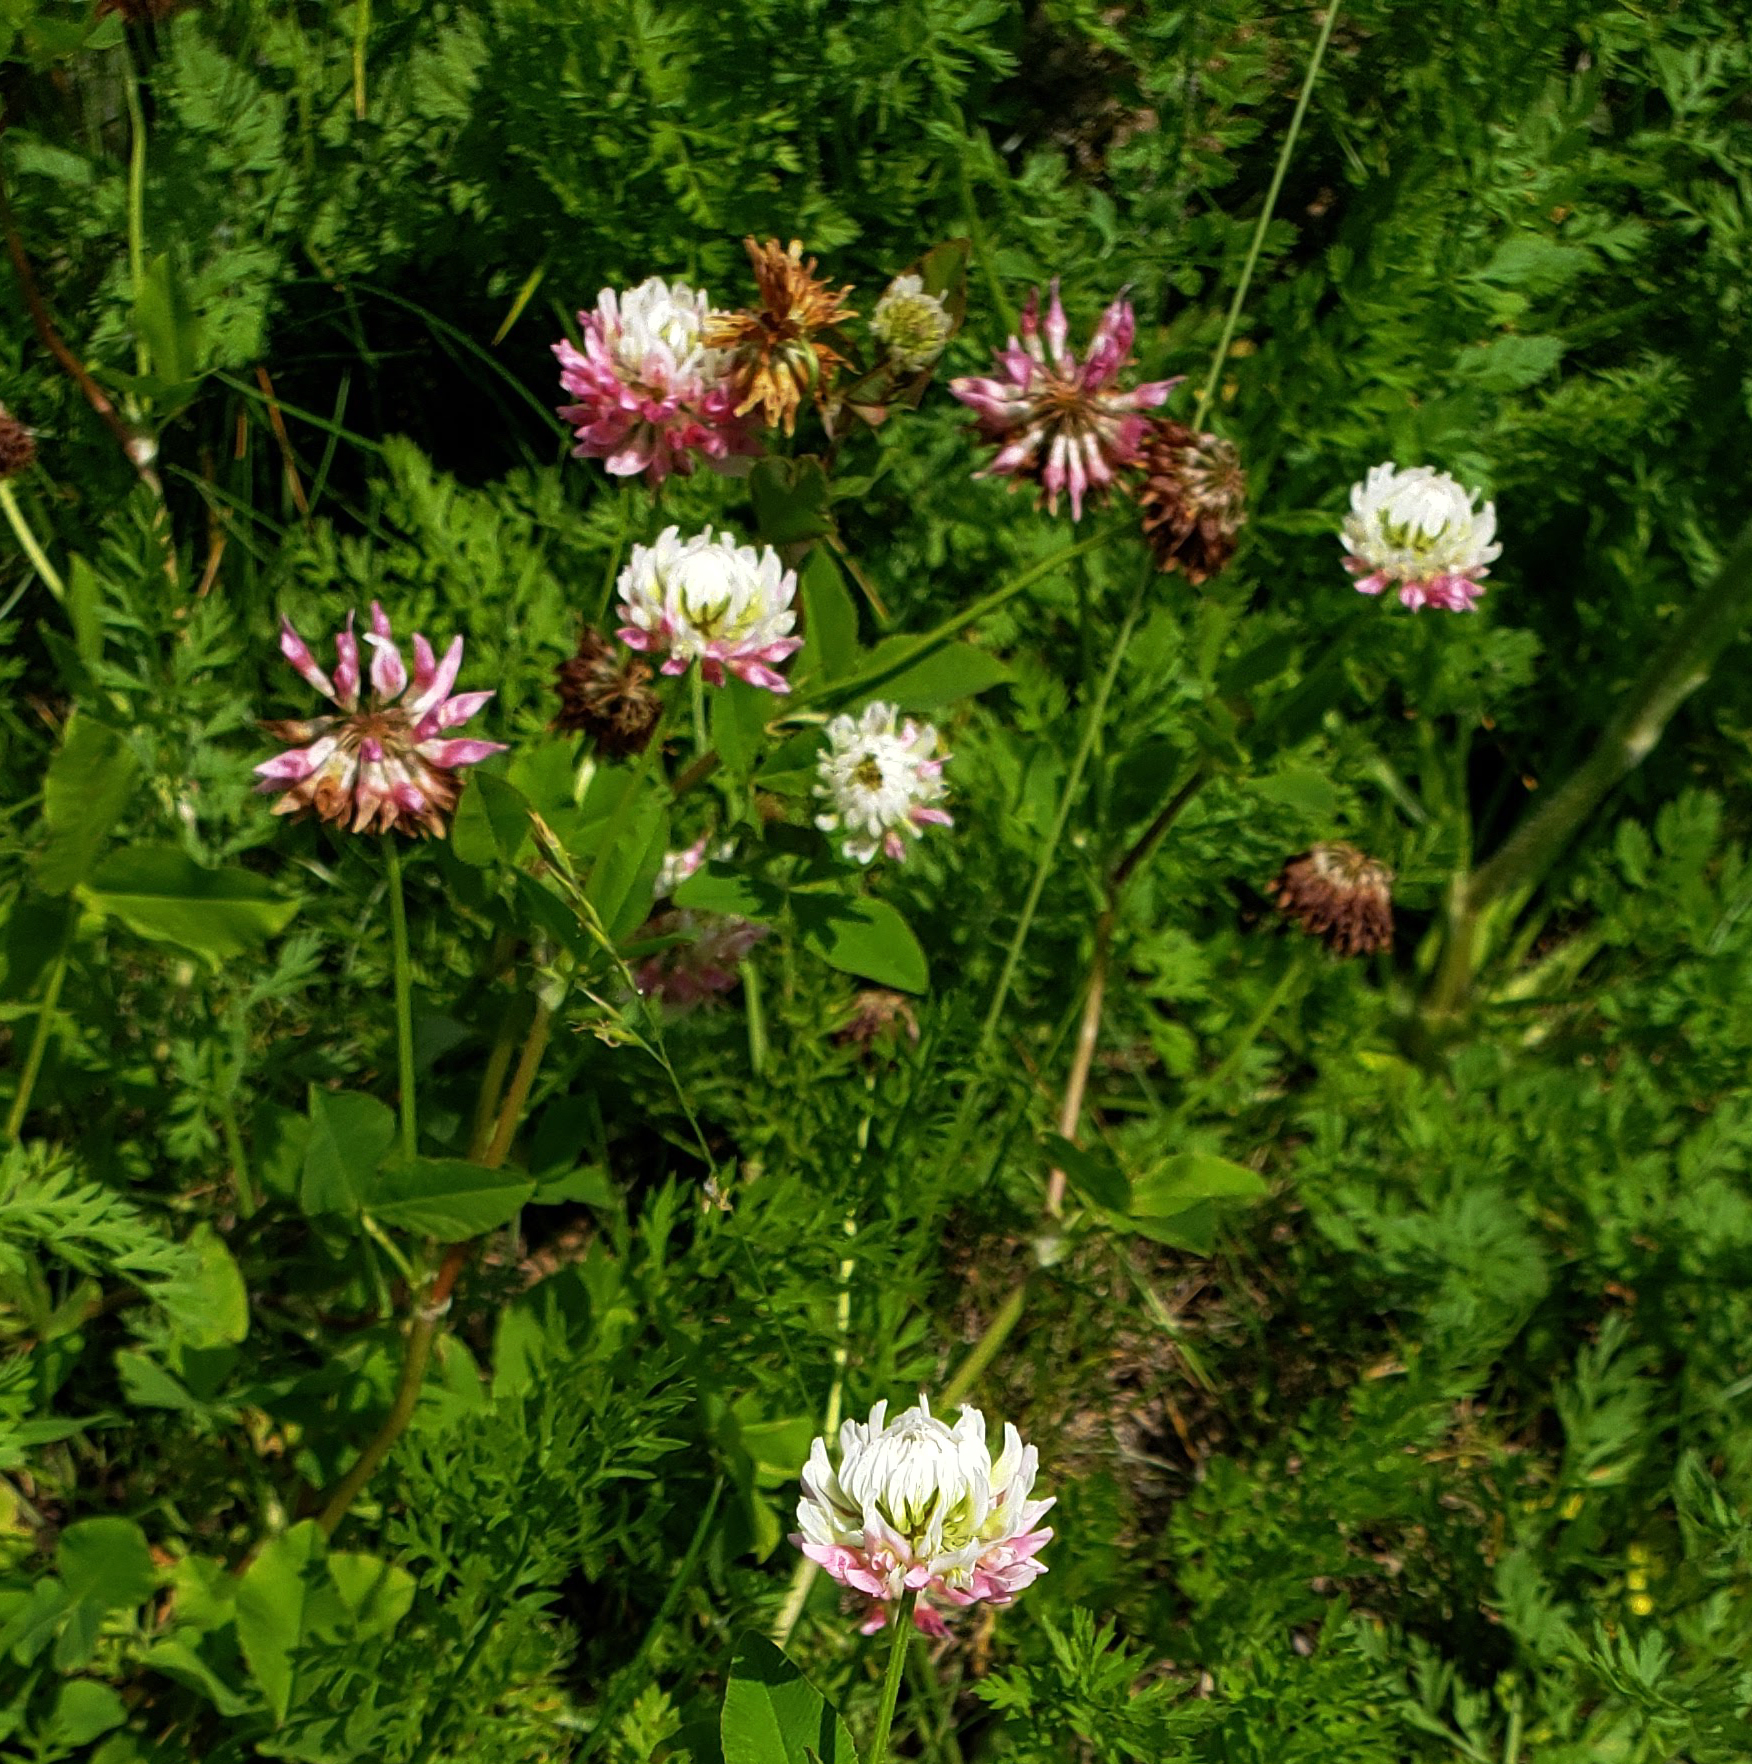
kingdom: Plantae
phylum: Tracheophyta
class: Magnoliopsida
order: Fabales
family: Fabaceae
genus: Trifolium
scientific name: Trifolium hybridum
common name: Alsike clover
